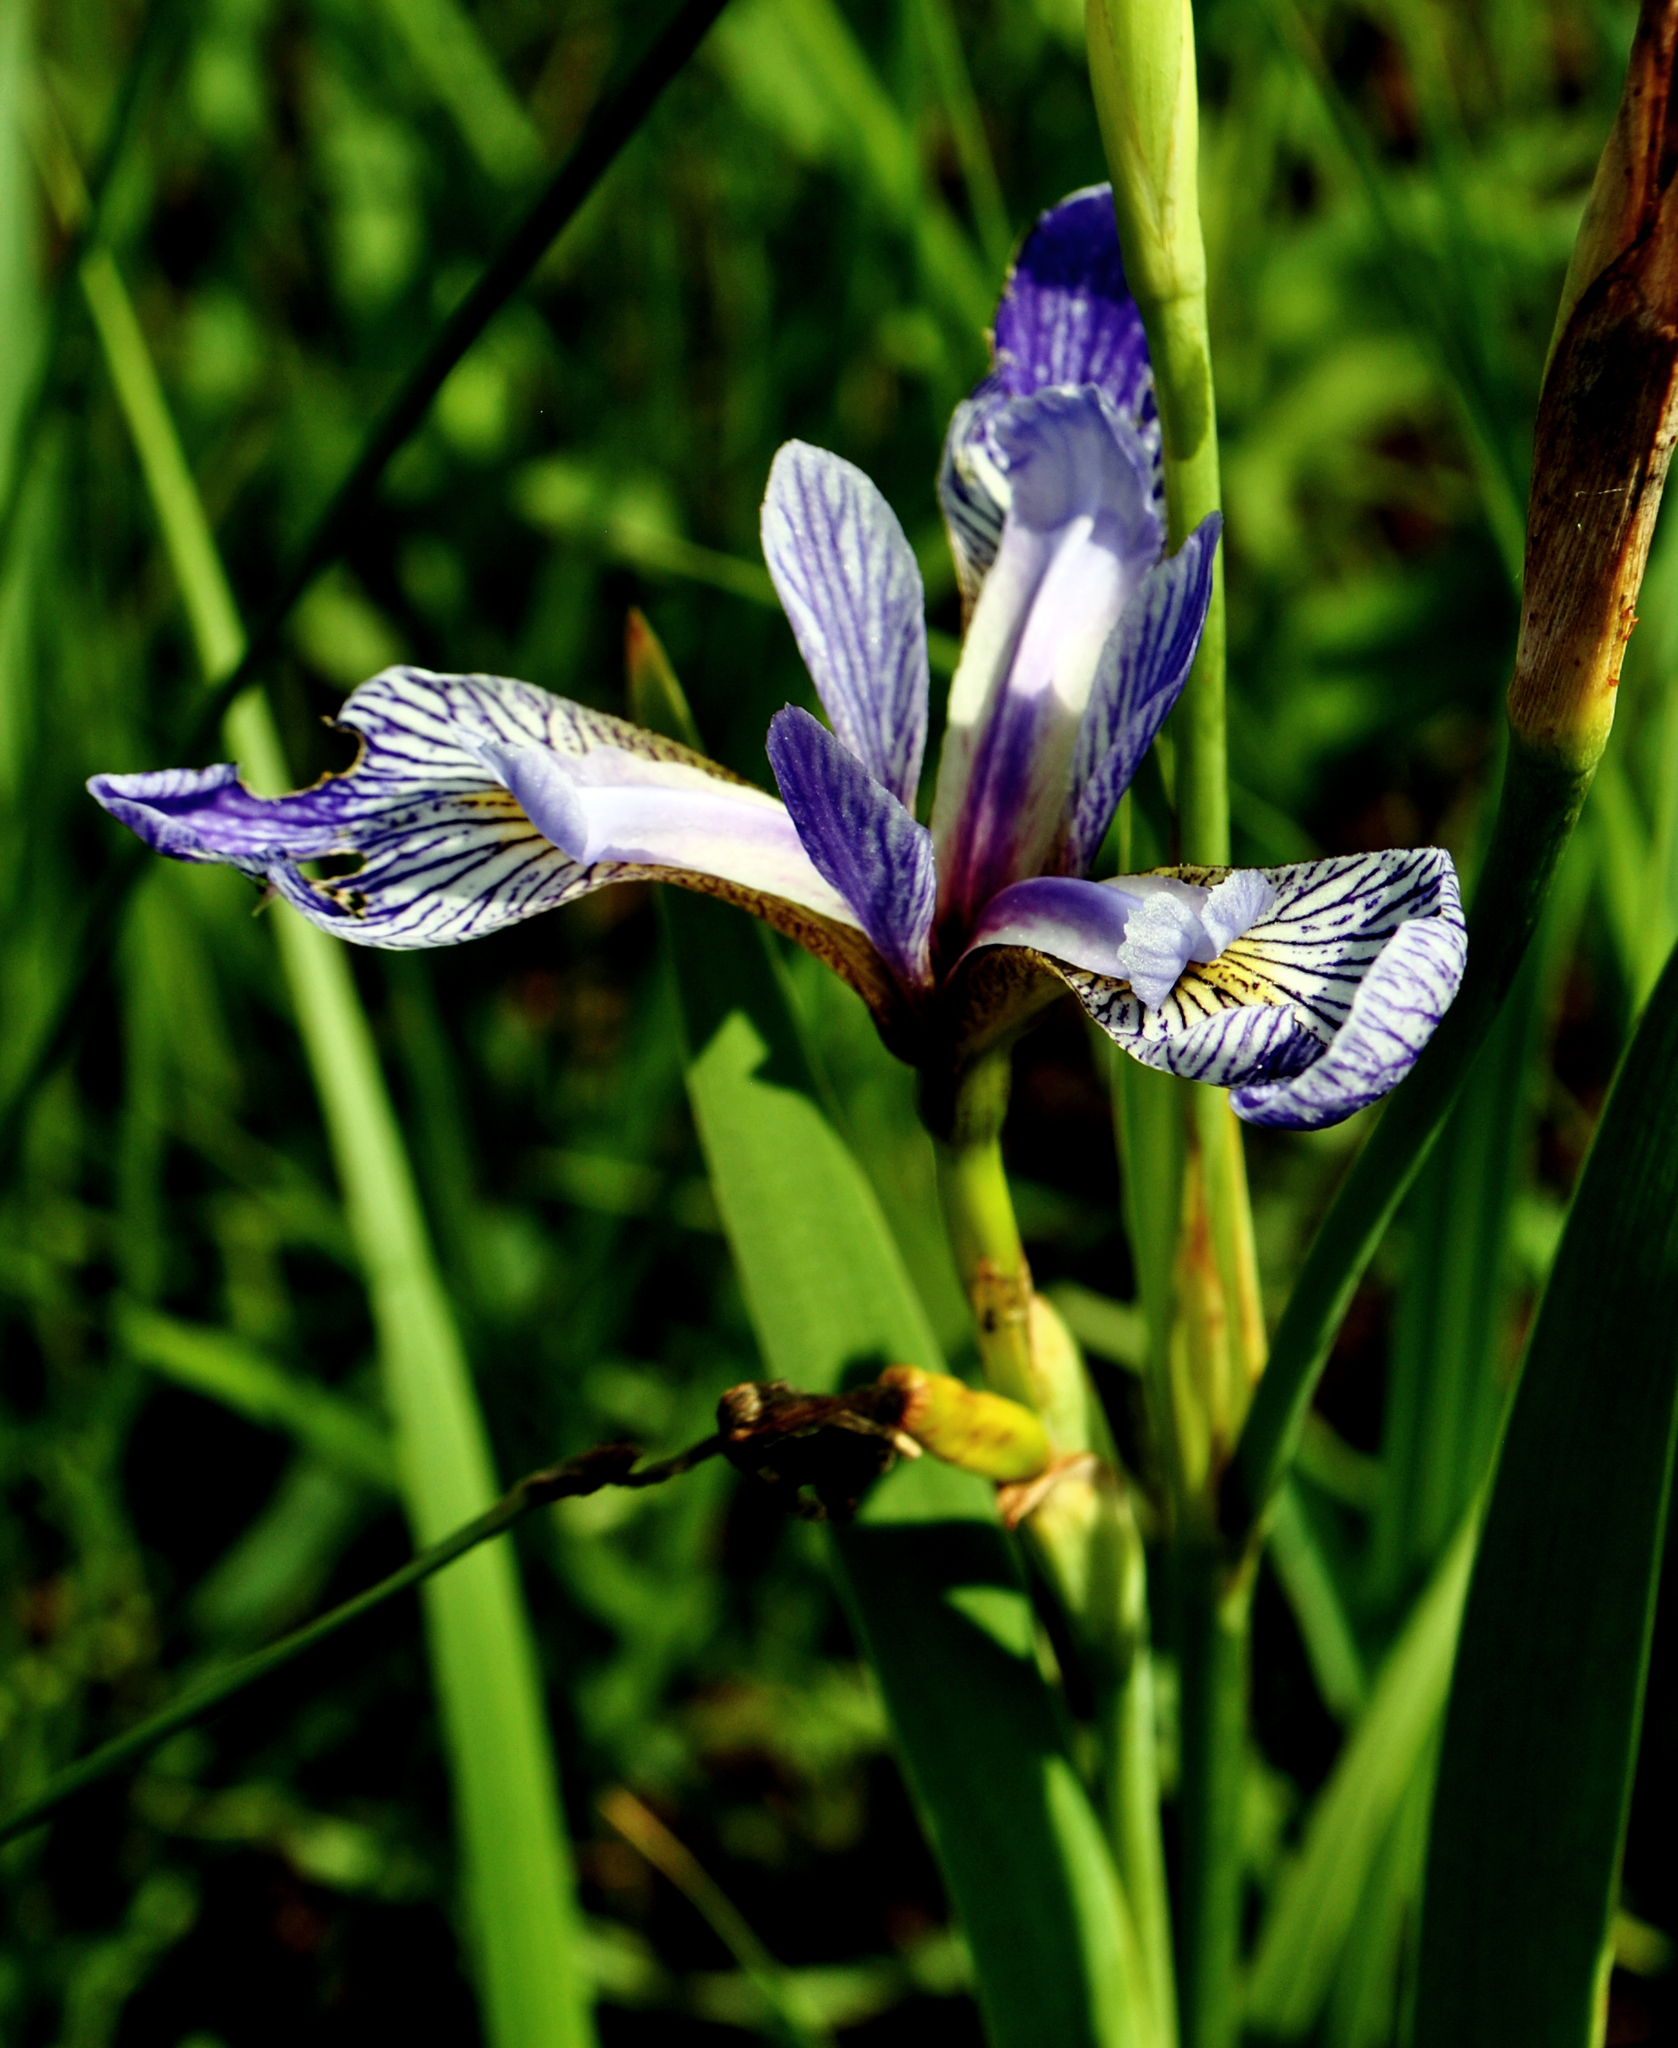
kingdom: Plantae
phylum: Tracheophyta
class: Liliopsida
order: Asparagales
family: Iridaceae
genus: Iris
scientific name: Iris versicolor
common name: Purple iris
